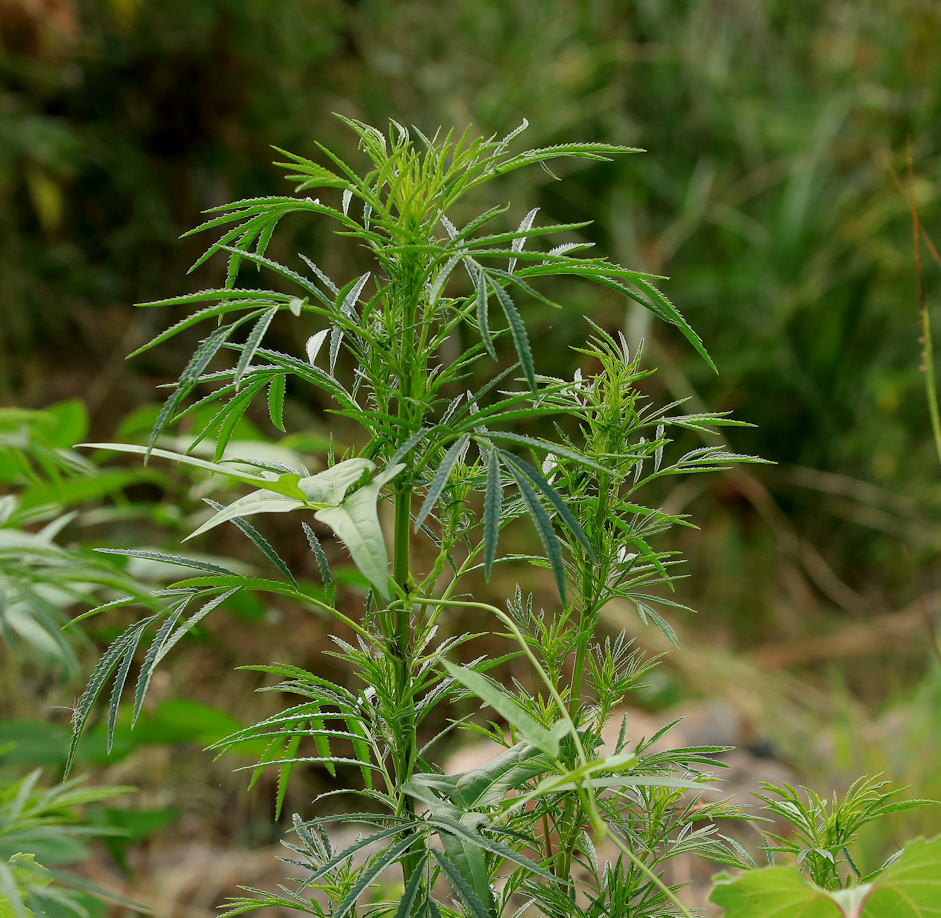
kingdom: Plantae
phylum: Tracheophyta
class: Magnoliopsida
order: Asterales
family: Asteraceae
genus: Tagetes
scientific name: Tagetes minuta
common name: Muster john henry
